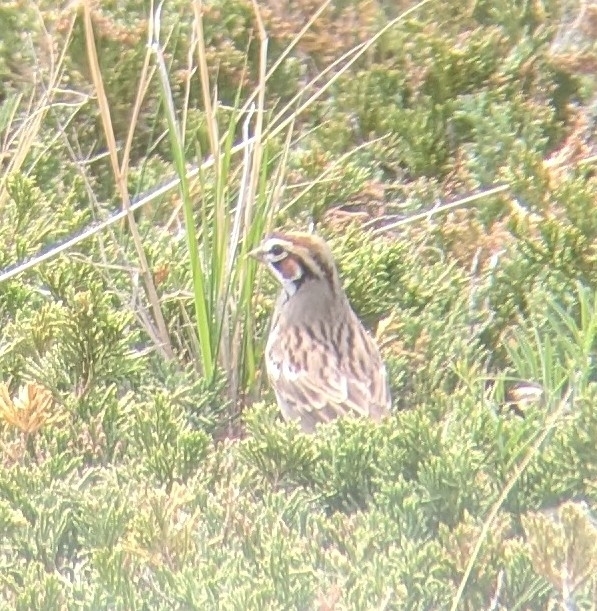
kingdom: Animalia
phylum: Chordata
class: Aves
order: Passeriformes
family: Passerellidae
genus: Chondestes
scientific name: Chondestes grammacus
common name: Lark sparrow
